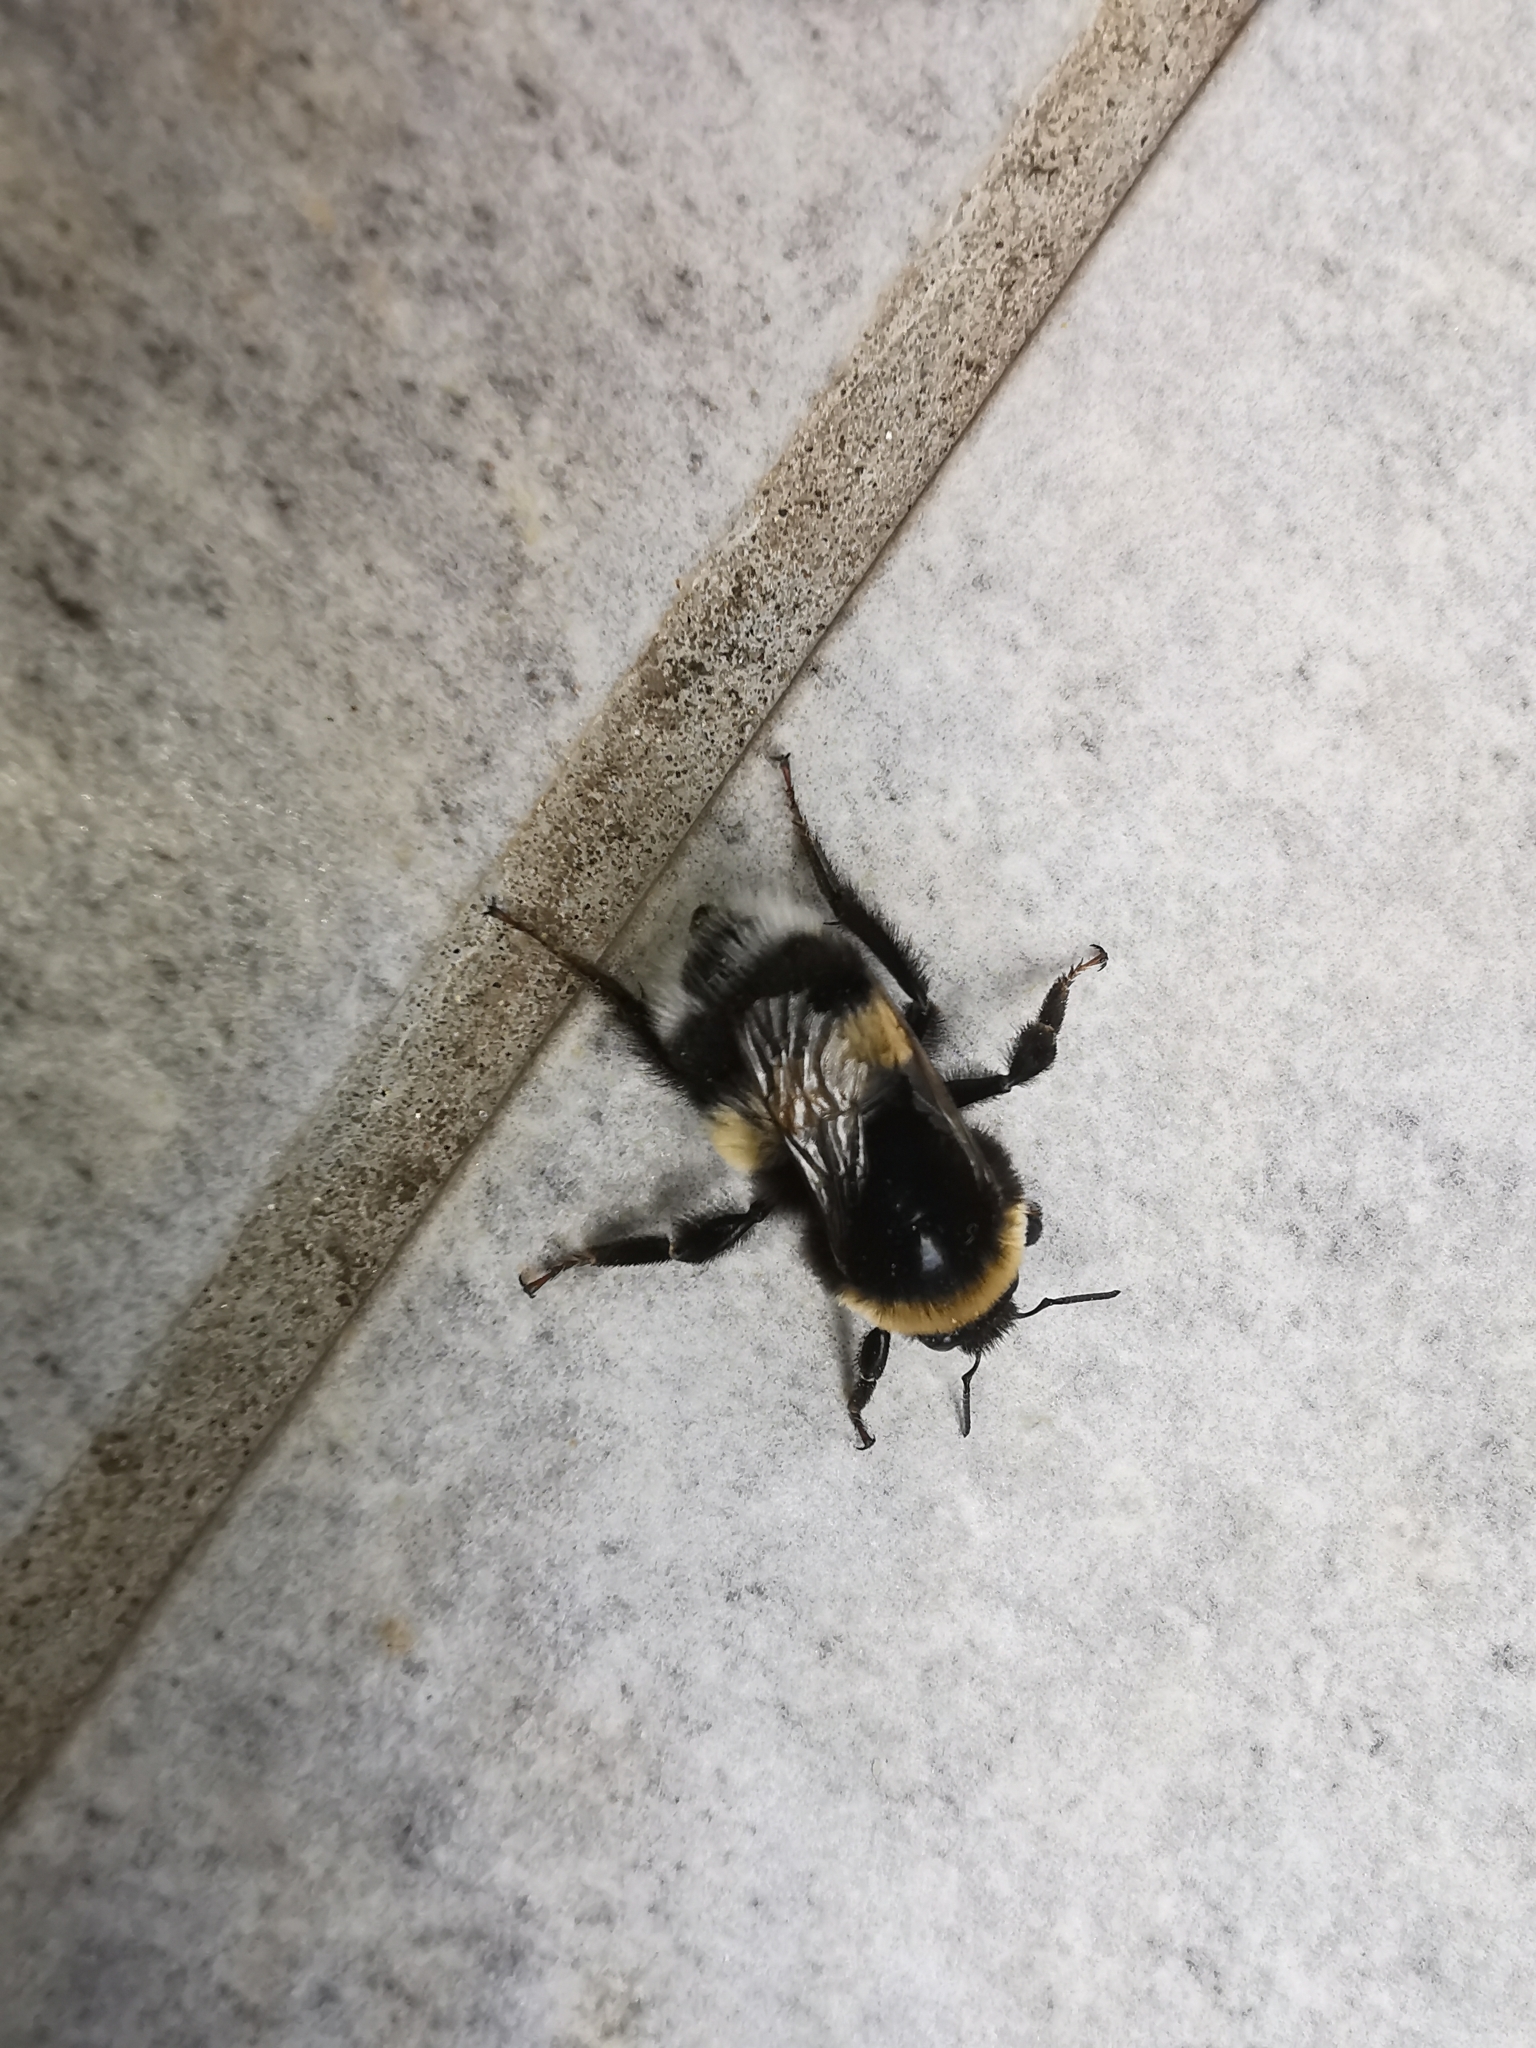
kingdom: Animalia
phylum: Arthropoda
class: Insecta
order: Hymenoptera
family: Apidae
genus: Bombus
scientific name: Bombus terrestris
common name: Buff-tailed bumblebee
